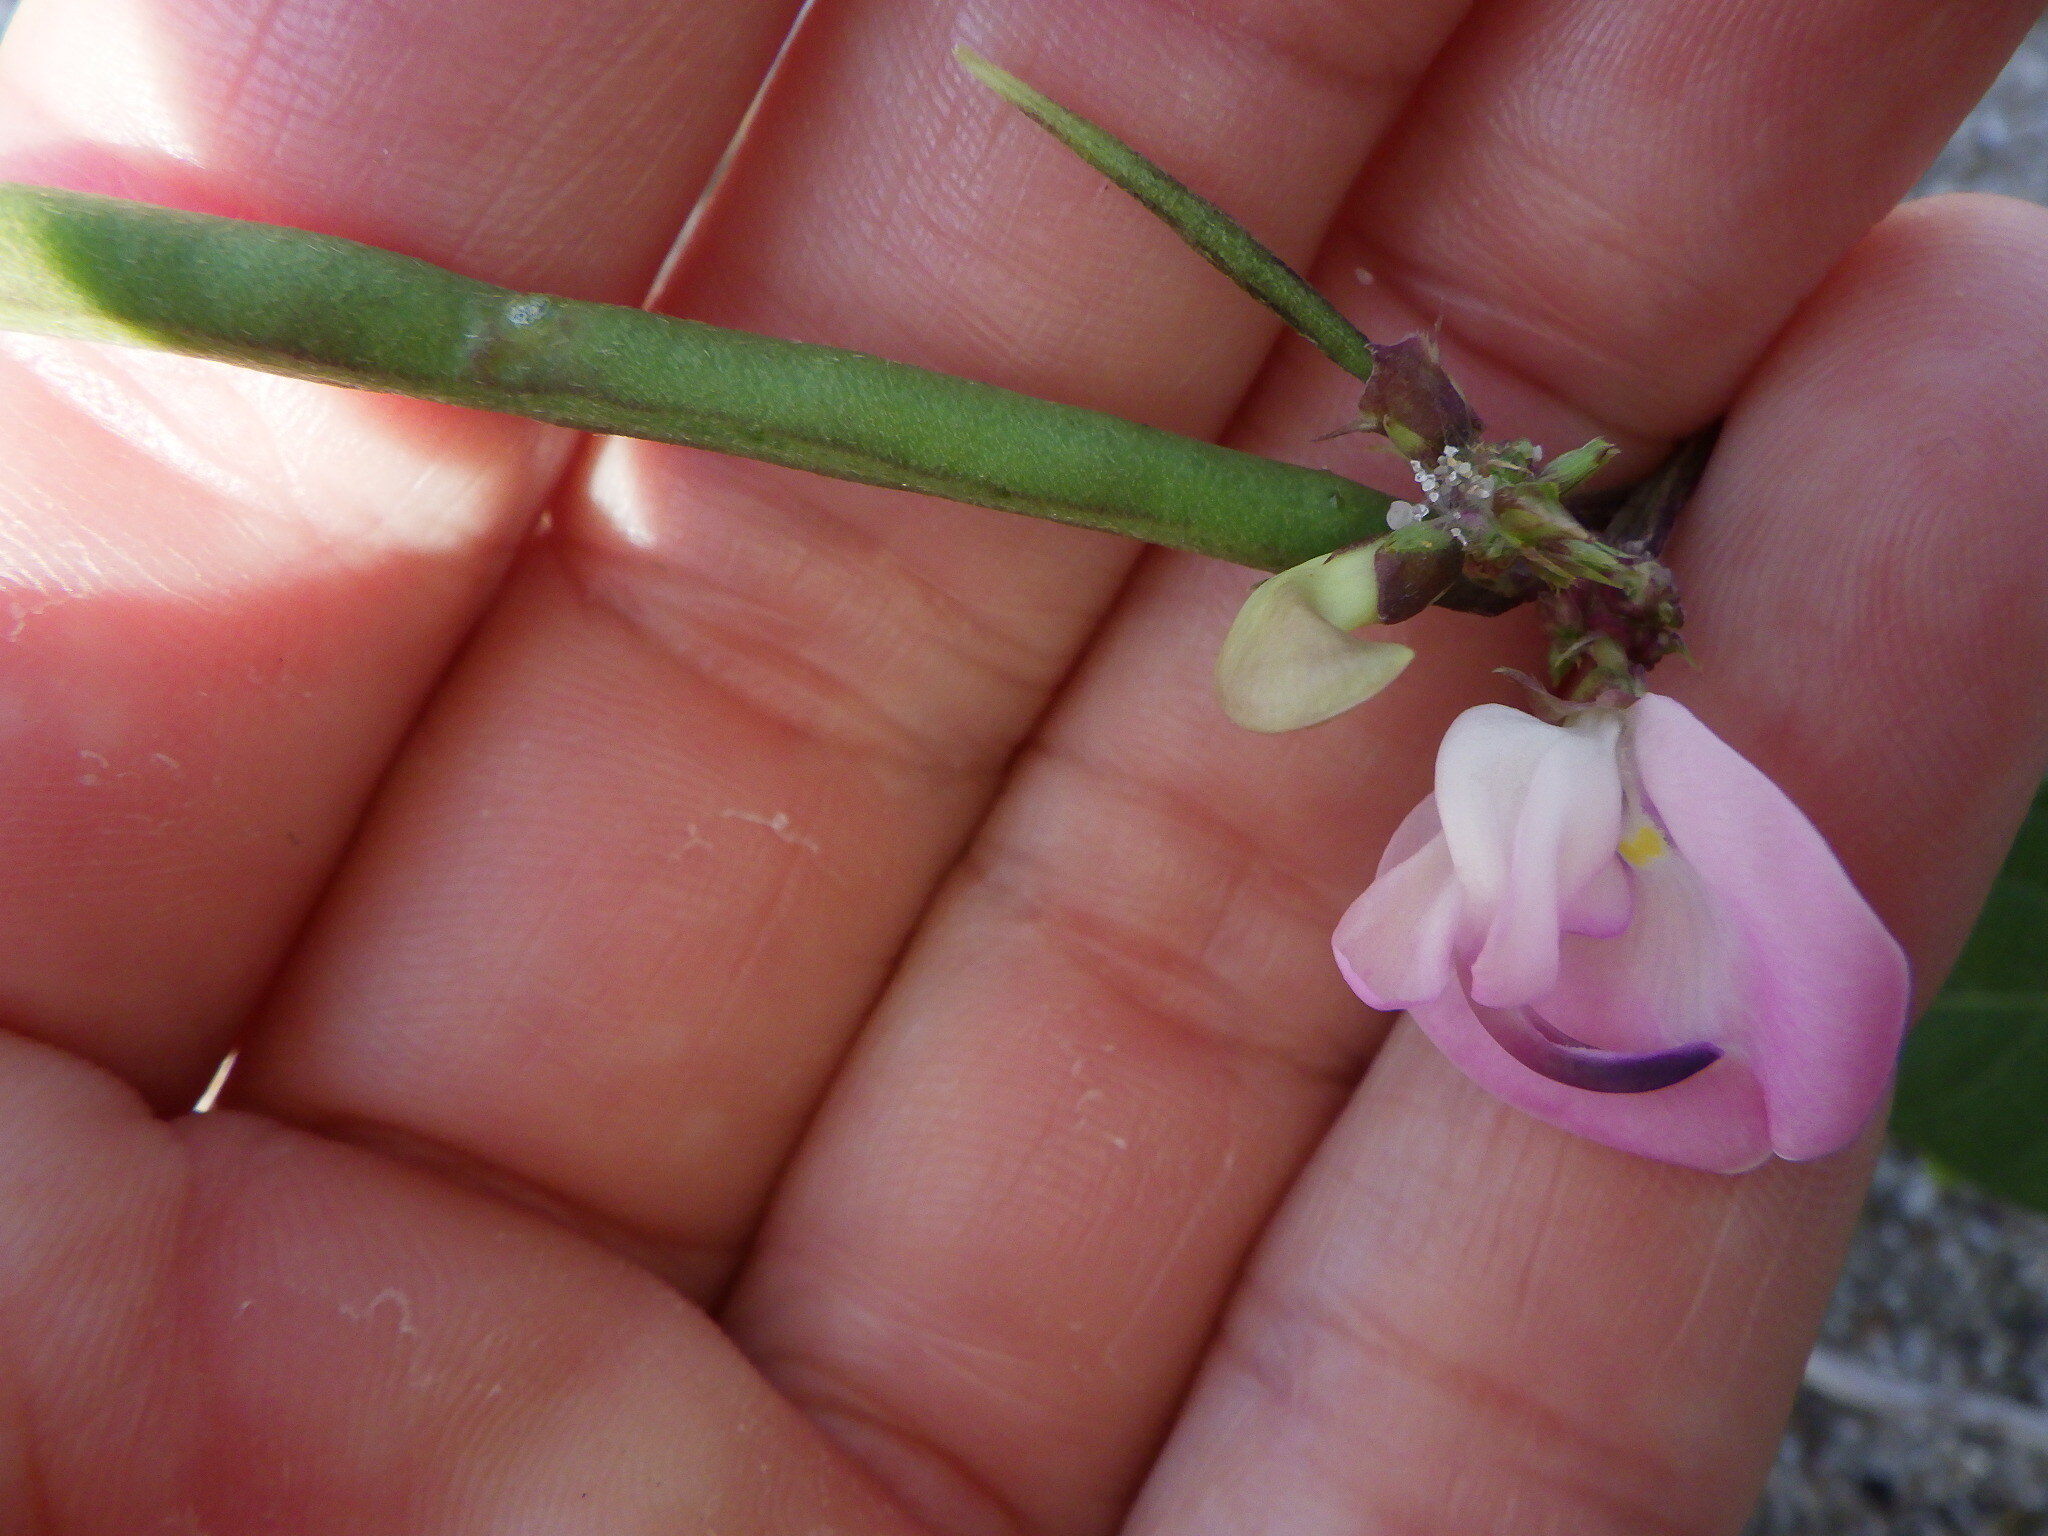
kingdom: Plantae
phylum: Tracheophyta
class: Magnoliopsida
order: Fabales
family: Fabaceae
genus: Strophostyles
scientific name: Strophostyles helvola
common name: Trailing wild bean
